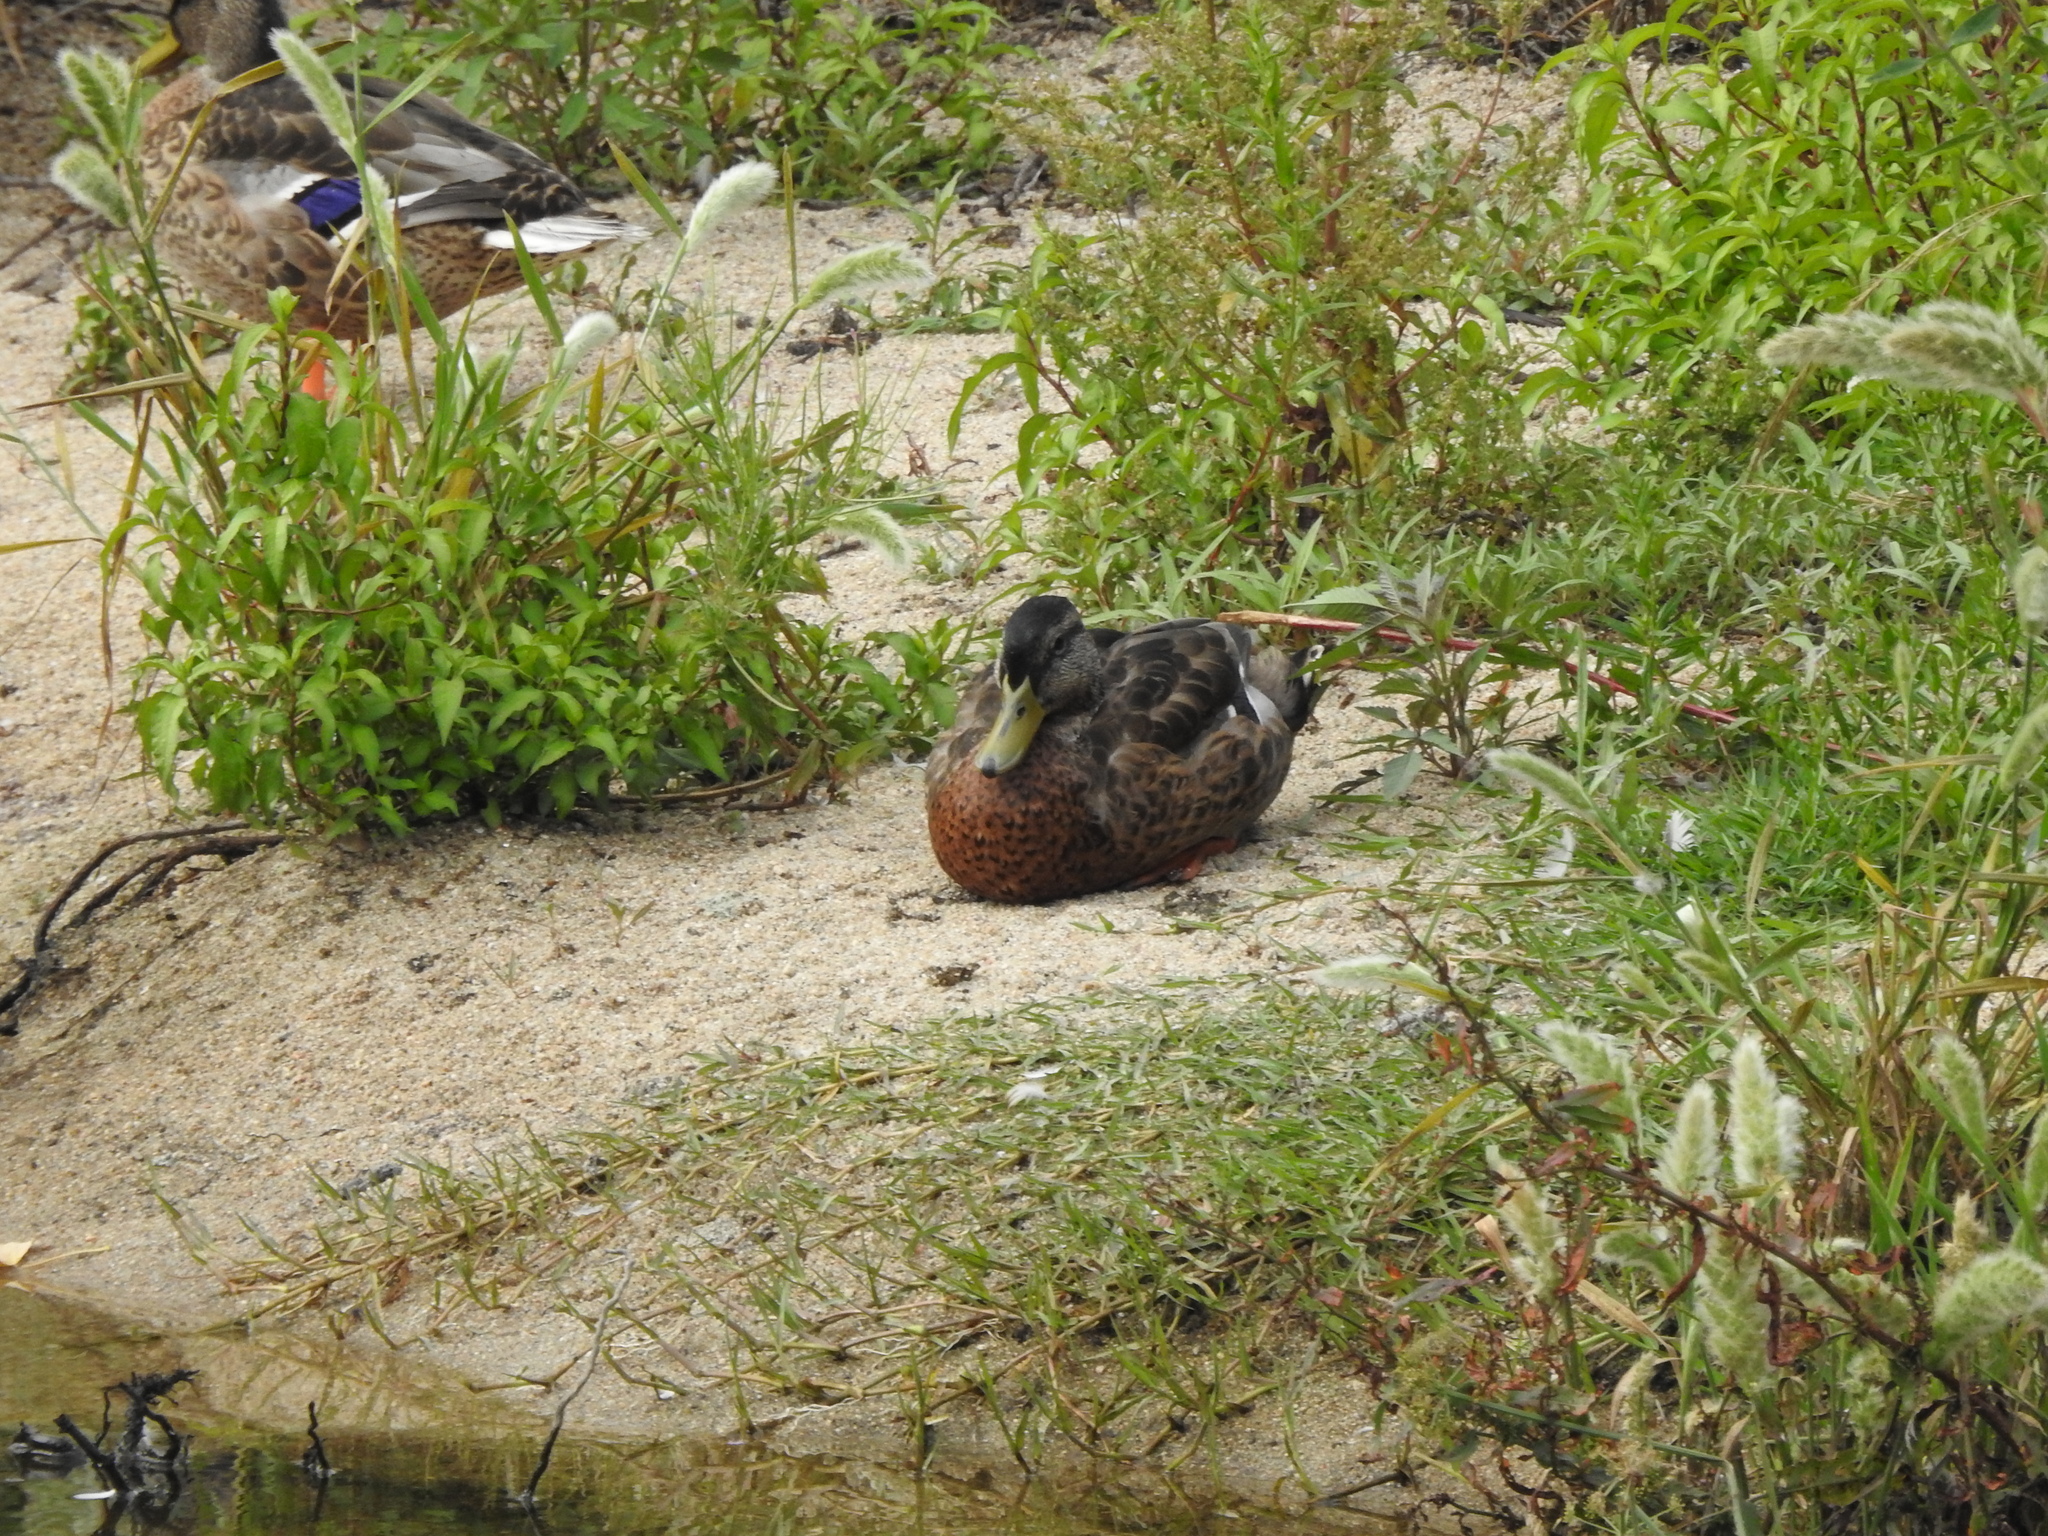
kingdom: Animalia
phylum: Chordata
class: Aves
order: Anseriformes
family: Anatidae
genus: Anas
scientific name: Anas platyrhynchos
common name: Mallard
